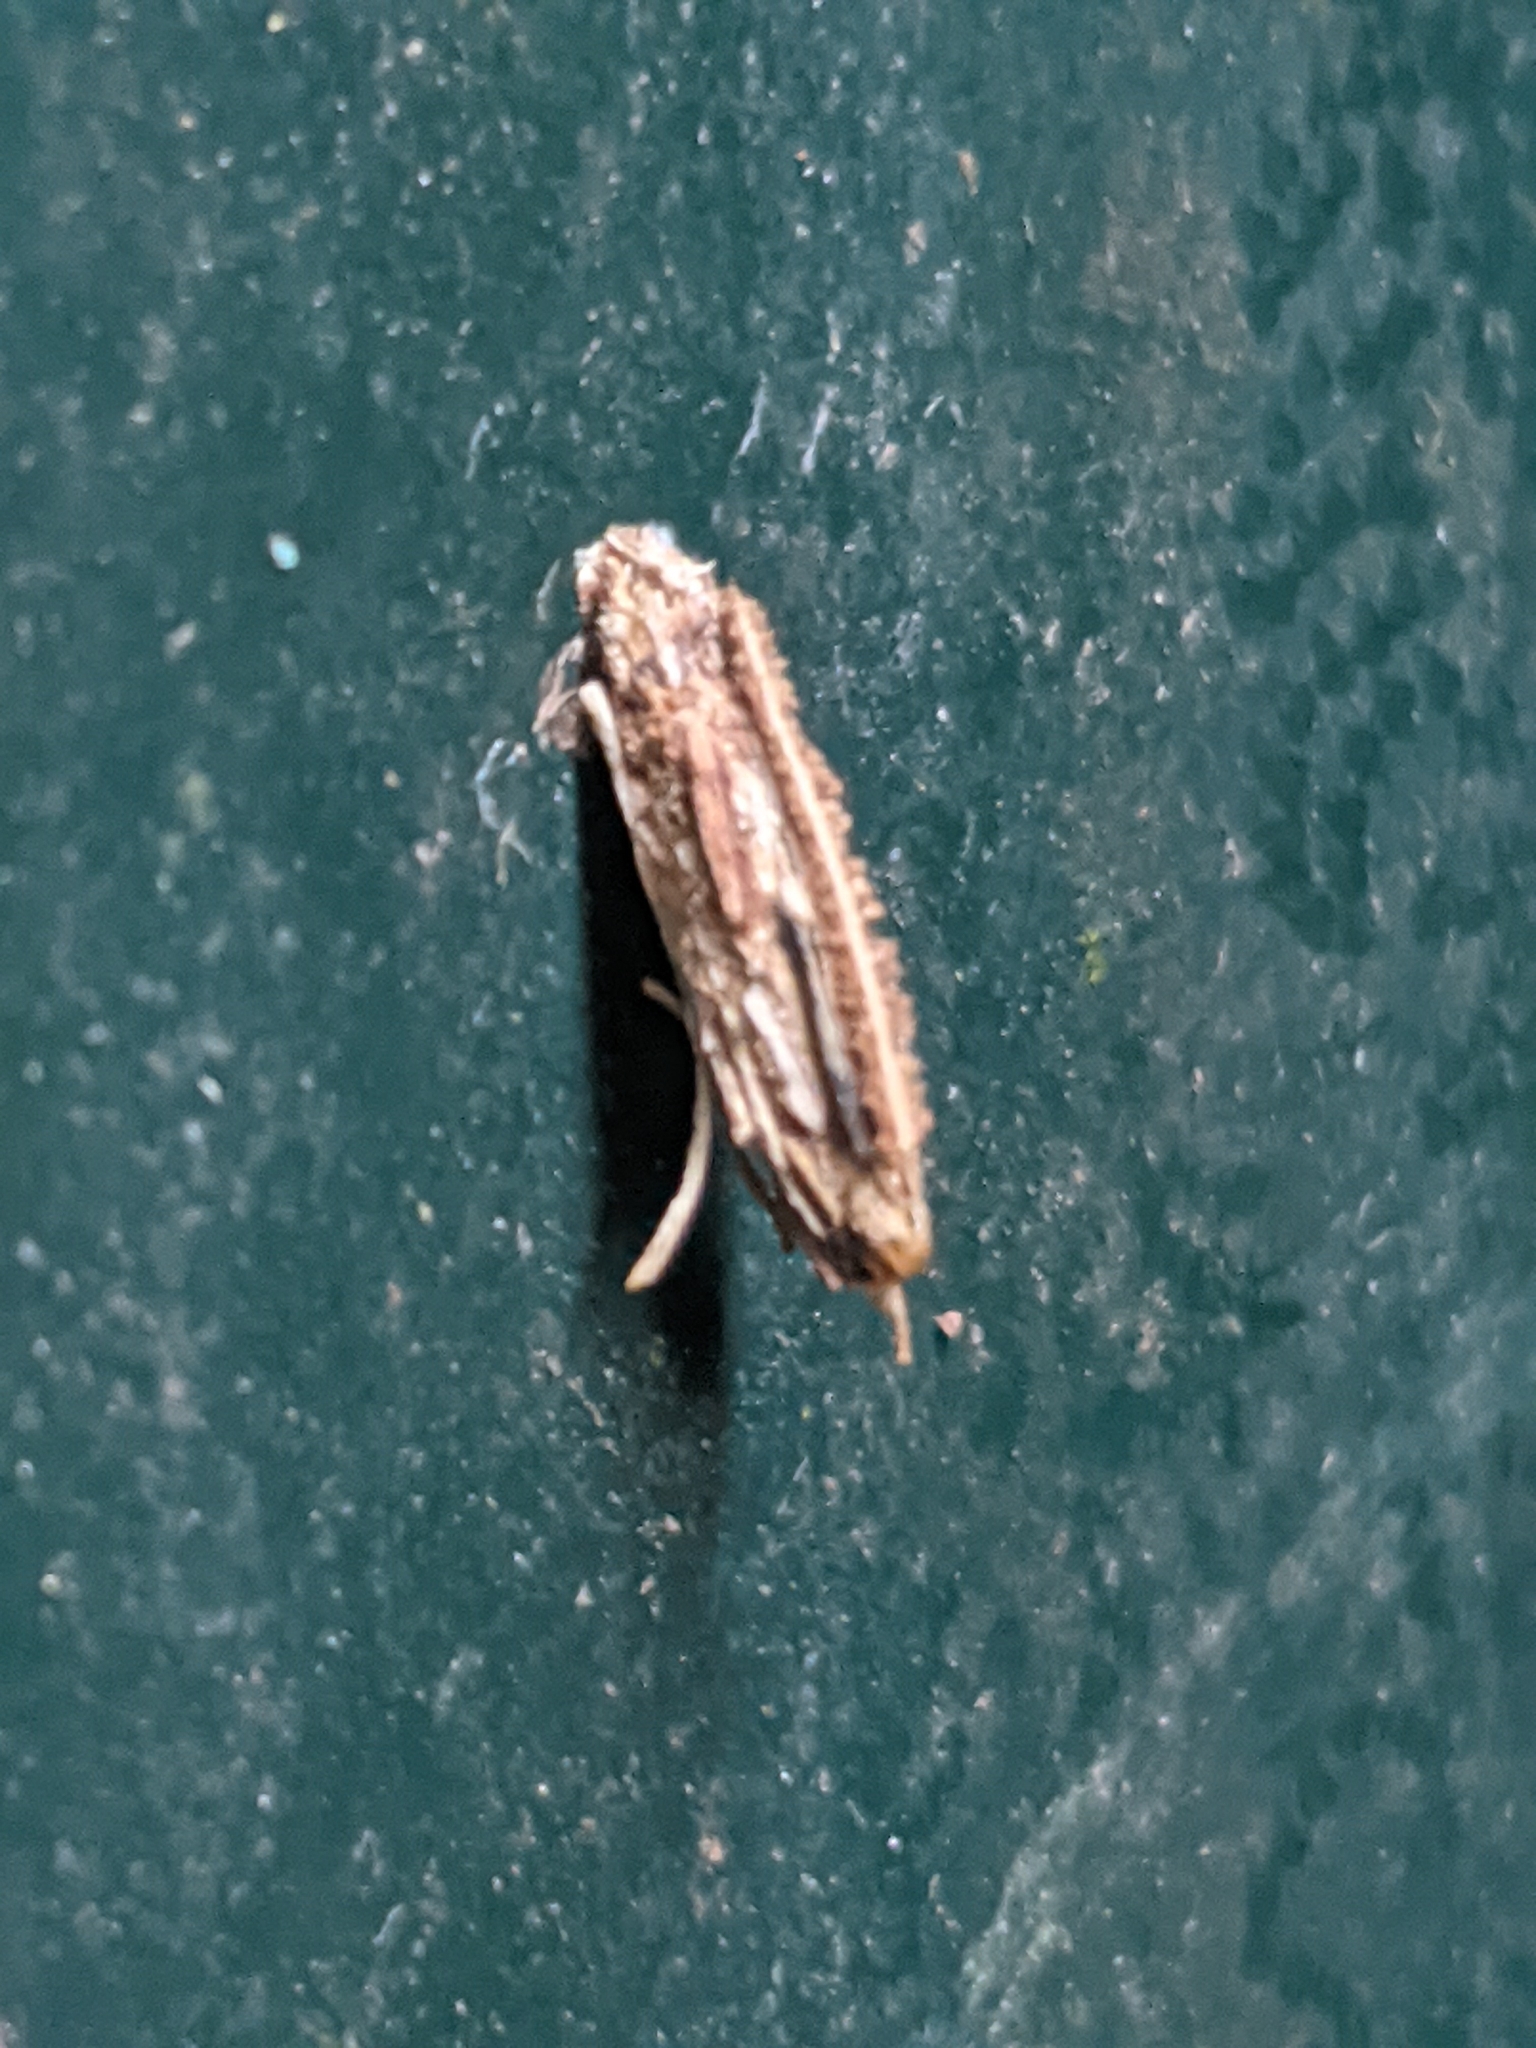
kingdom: Animalia
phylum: Arthropoda
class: Insecta
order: Lepidoptera
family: Psychidae
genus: Psyche
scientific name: Psyche casta
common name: Common sweep
